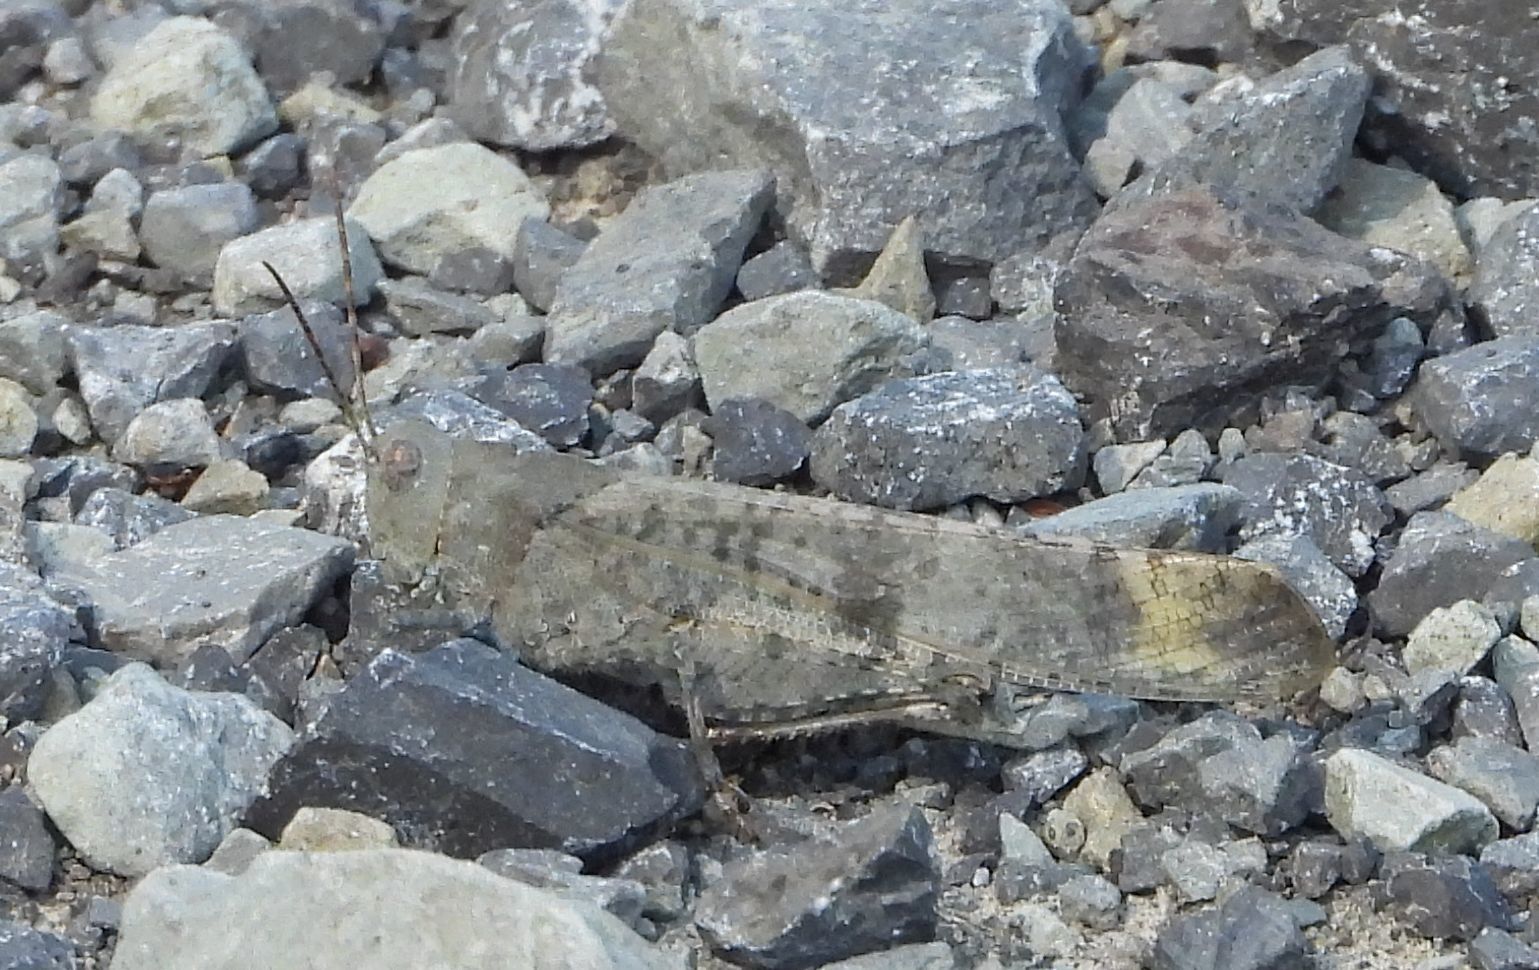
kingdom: Animalia
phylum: Arthropoda
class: Insecta
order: Orthoptera
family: Acrididae
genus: Dissosteira
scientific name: Dissosteira carolina
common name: Carolina grasshopper
